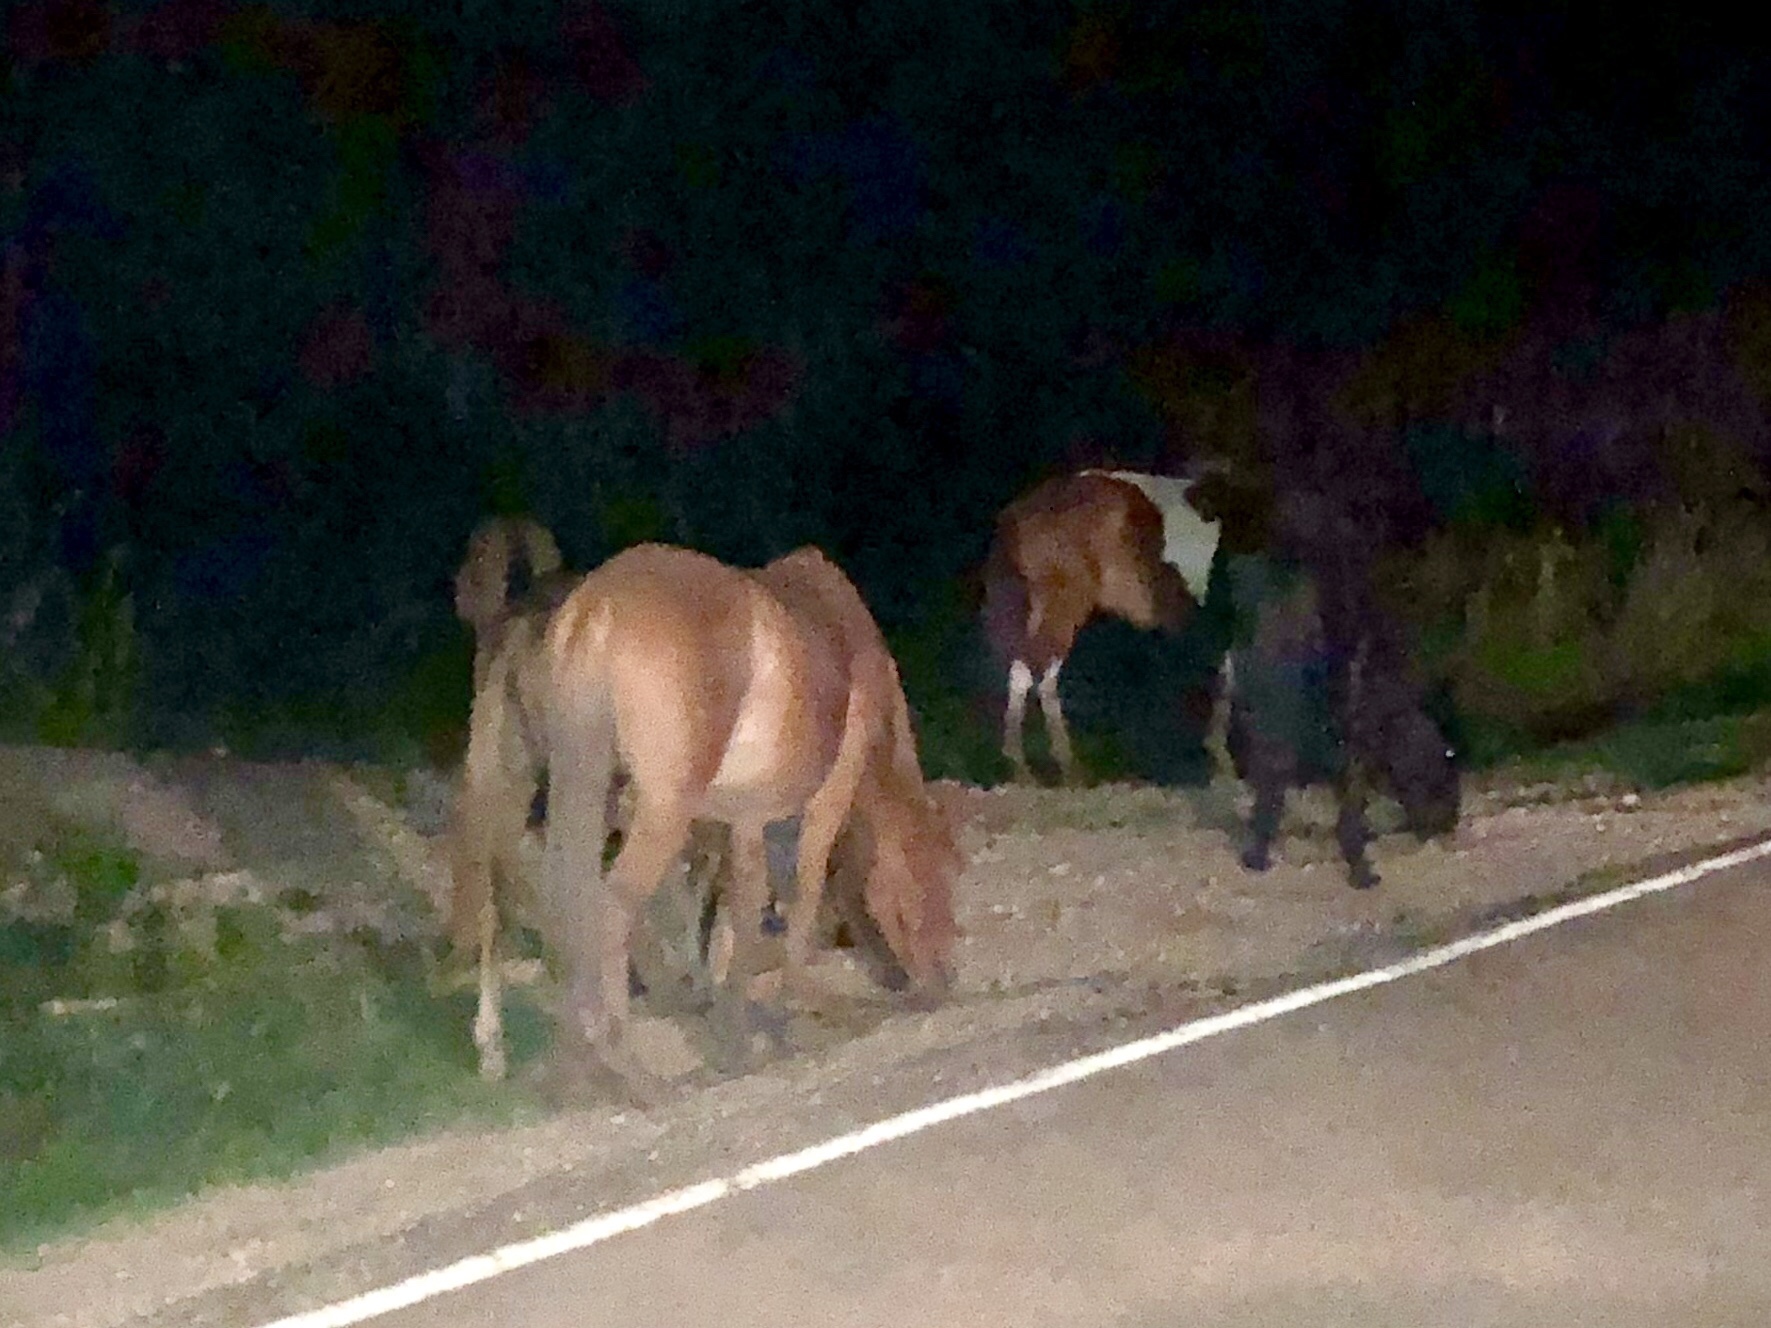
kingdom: Animalia
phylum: Chordata
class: Mammalia
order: Perissodactyla
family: Equidae
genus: Equus
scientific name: Equus caballus
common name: Horse
